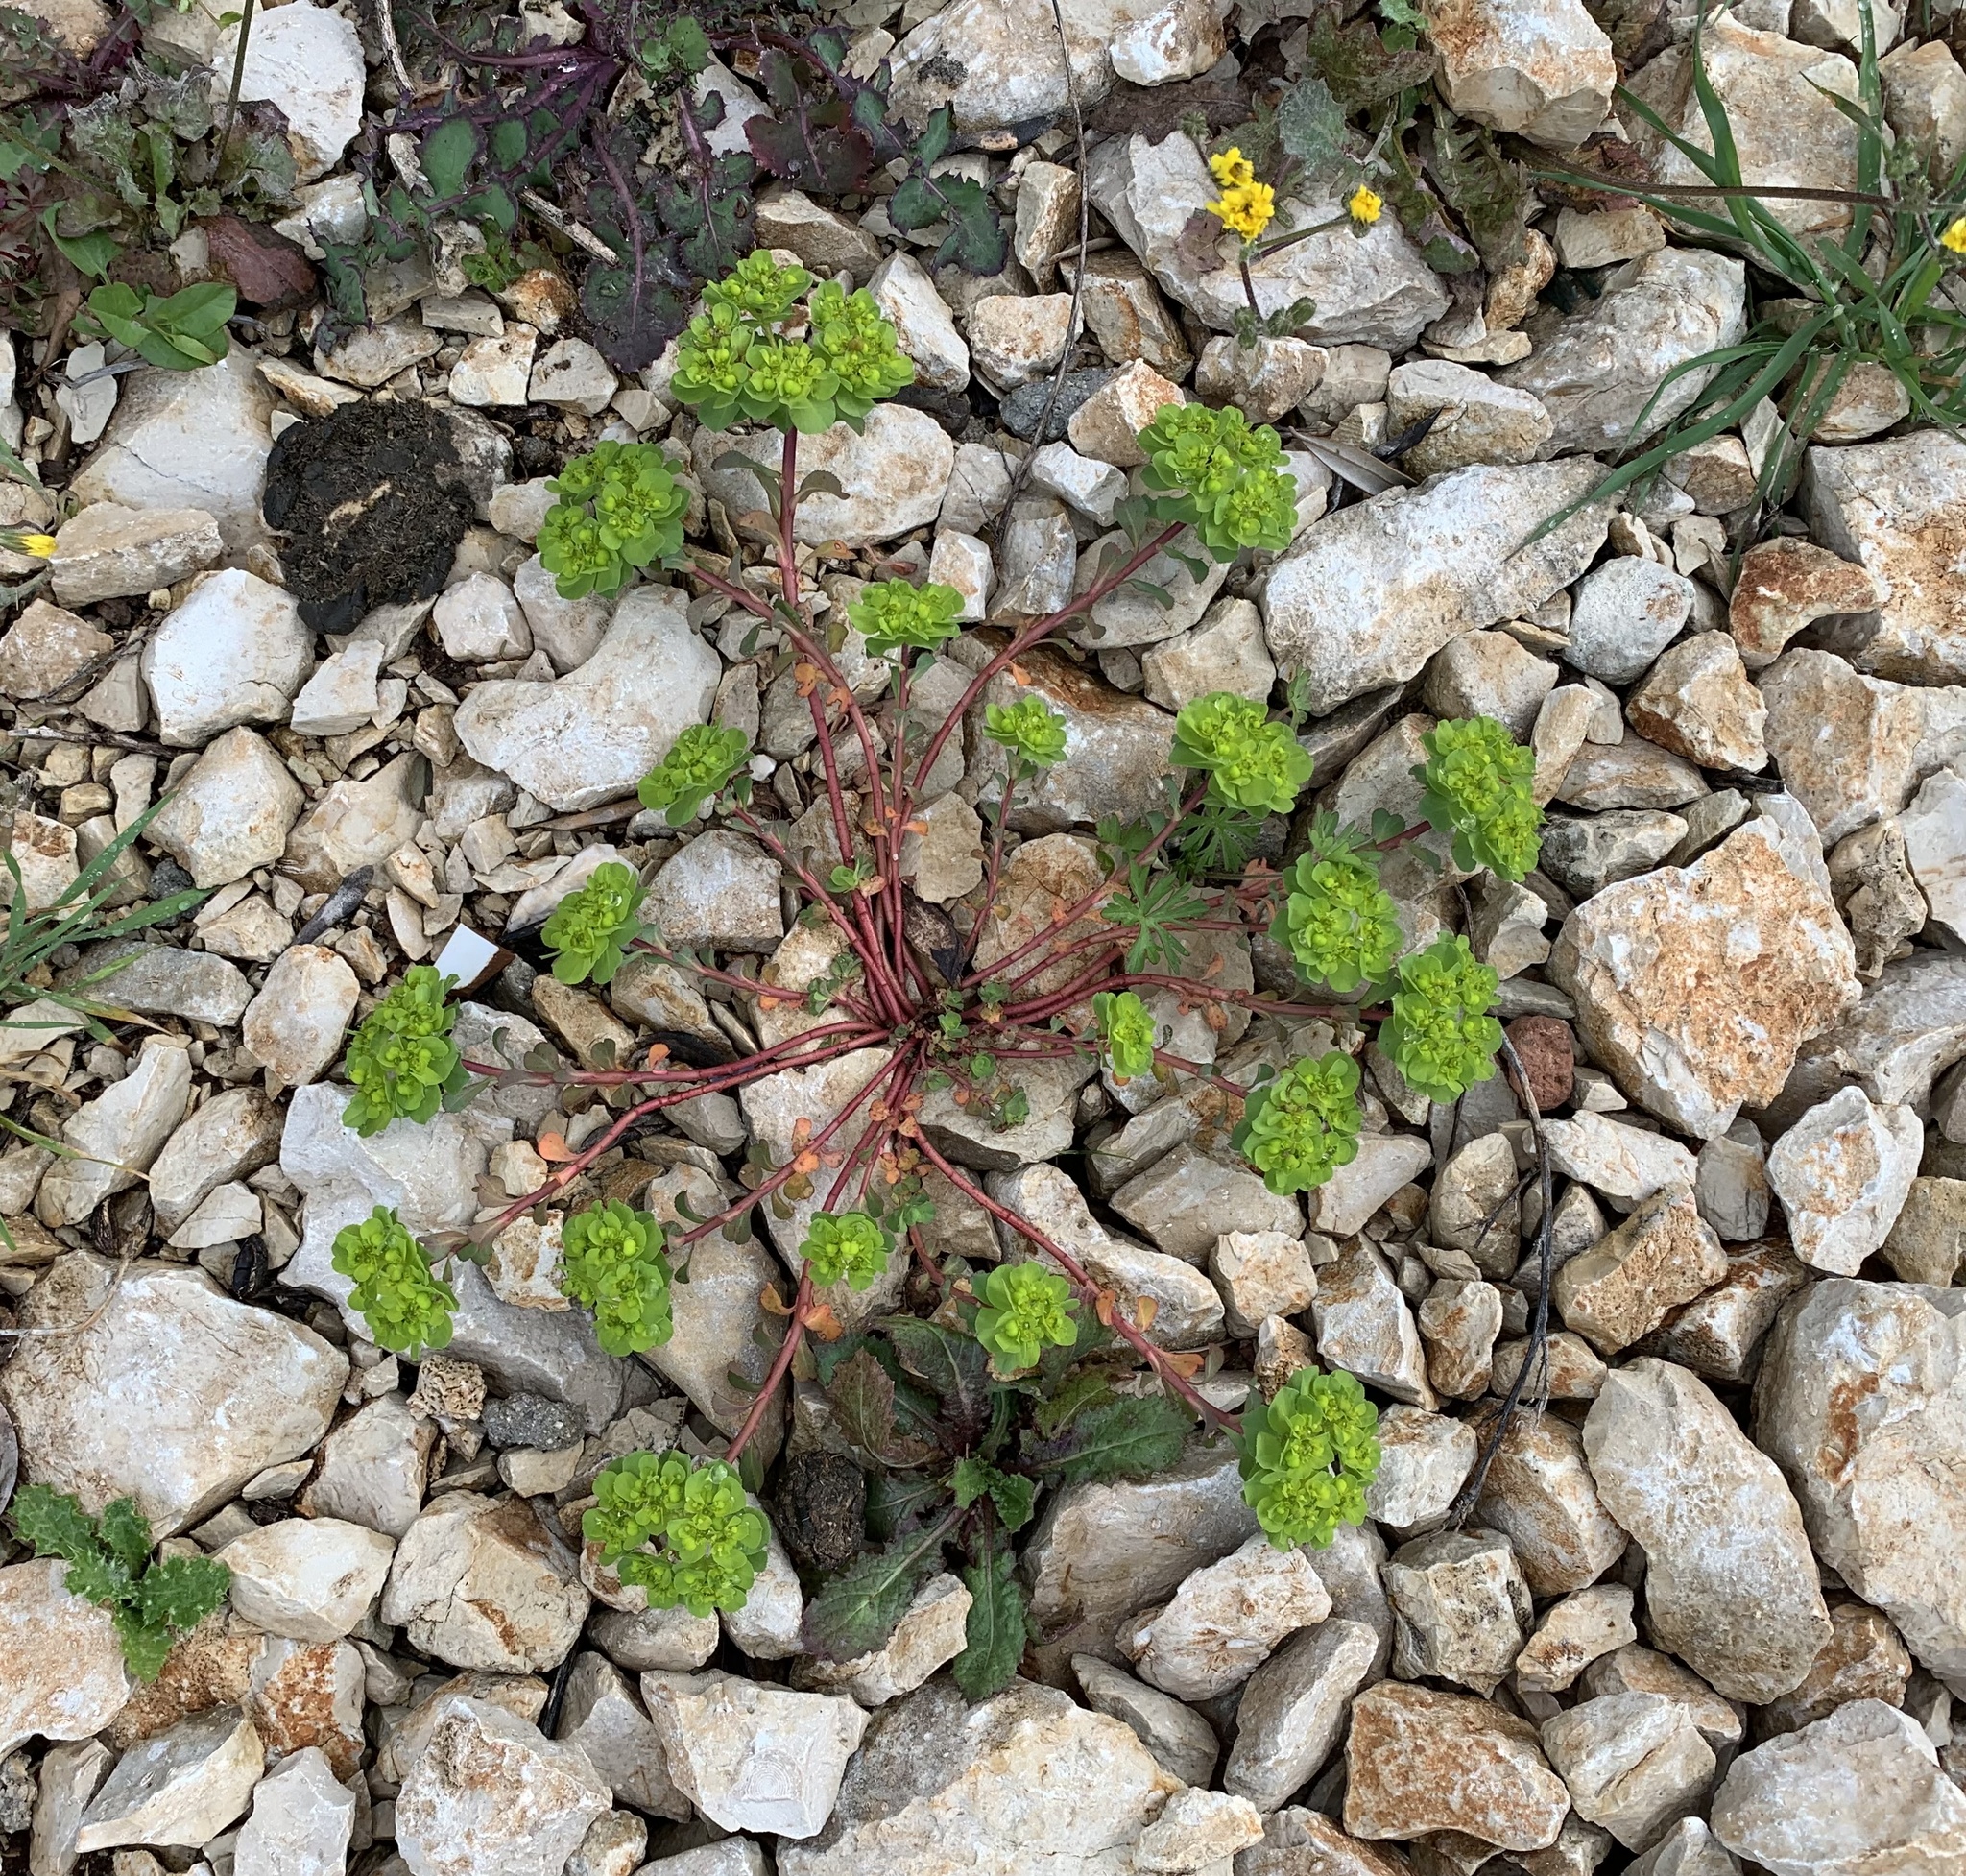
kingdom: Plantae
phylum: Tracheophyta
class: Magnoliopsida
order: Malpighiales
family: Euphorbiaceae
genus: Euphorbia
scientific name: Euphorbia helioscopia
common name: Sun spurge
